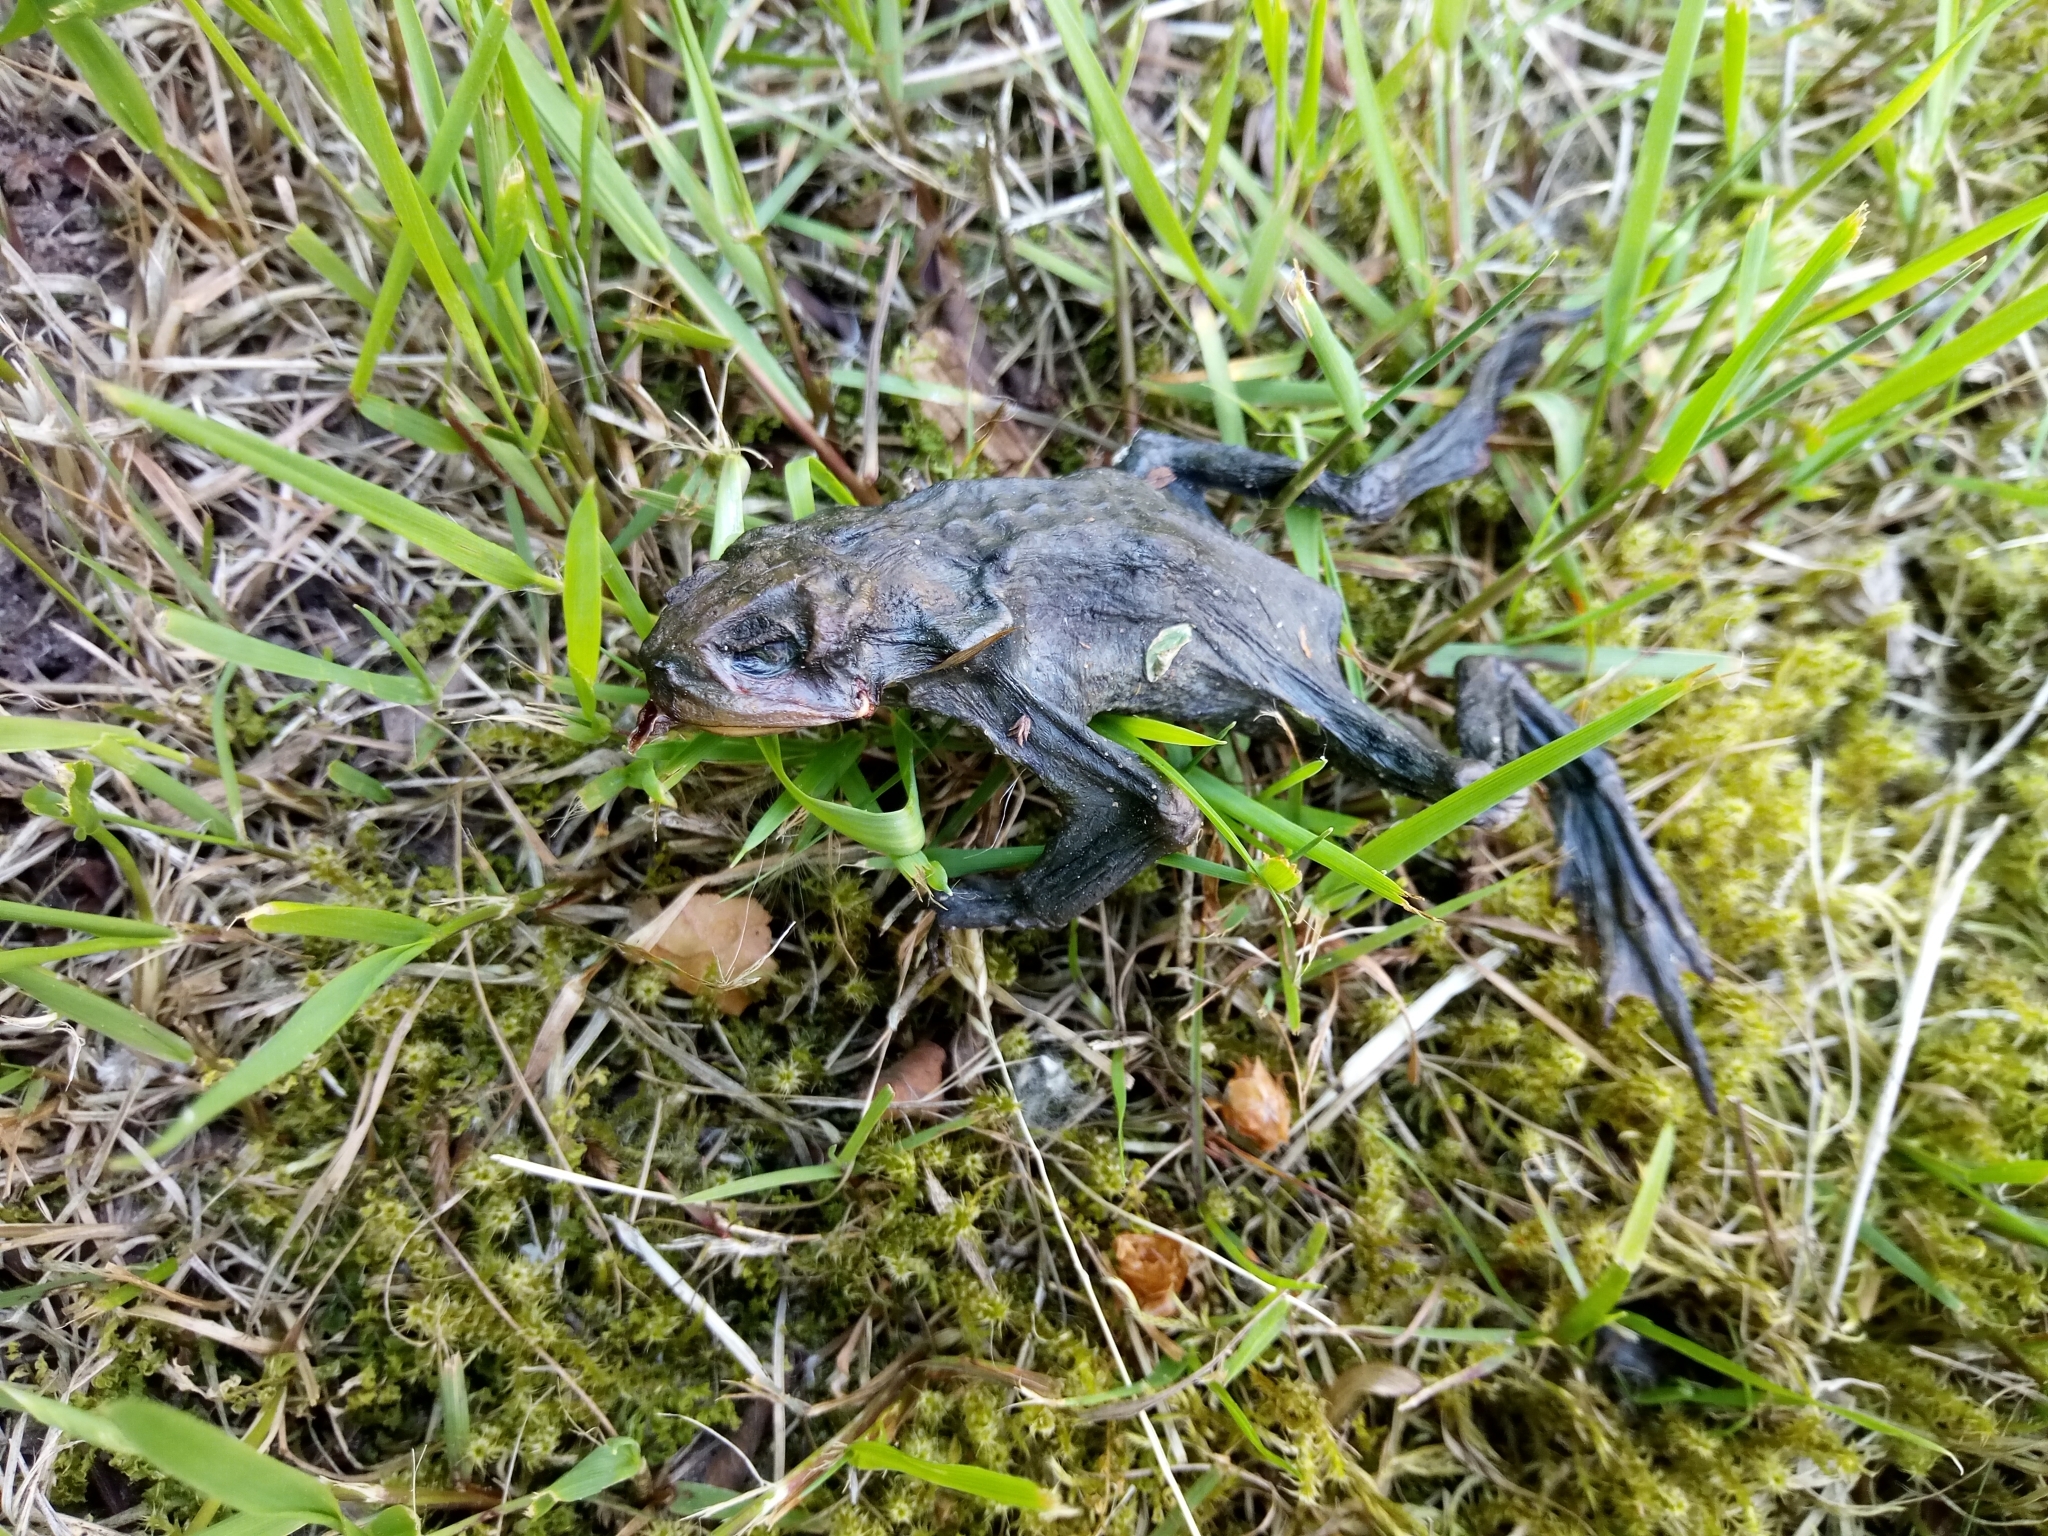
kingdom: Animalia
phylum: Chordata
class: Amphibia
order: Anura
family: Bufonidae
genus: Bufo
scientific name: Bufo bufo
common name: Common toad
